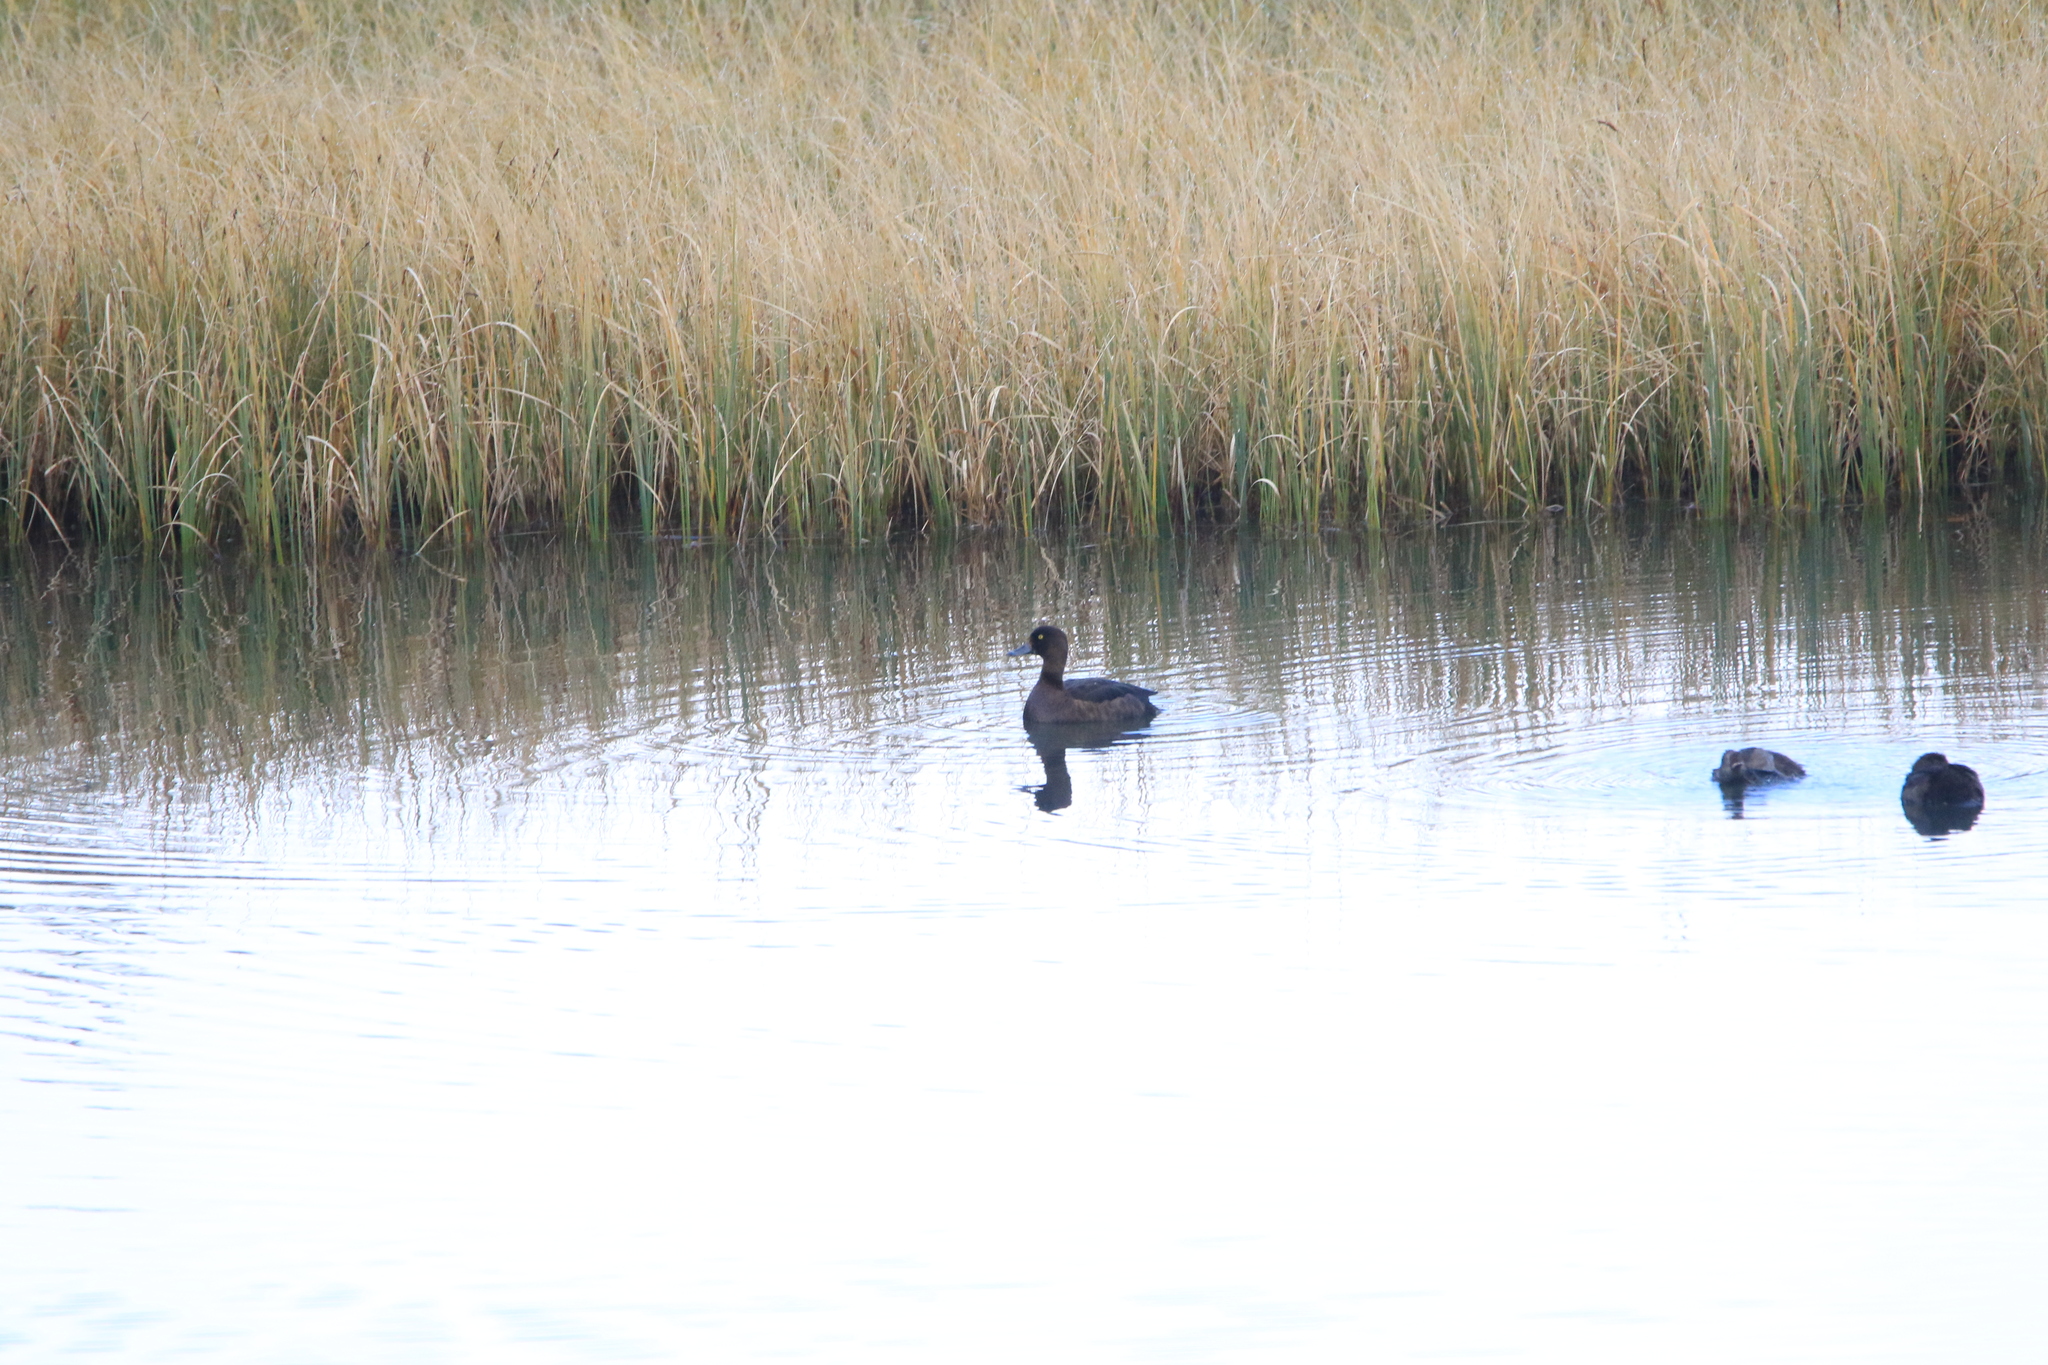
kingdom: Animalia
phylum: Chordata
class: Aves
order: Anseriformes
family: Anatidae
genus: Aythya
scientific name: Aythya fuligula
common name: Tufted duck
